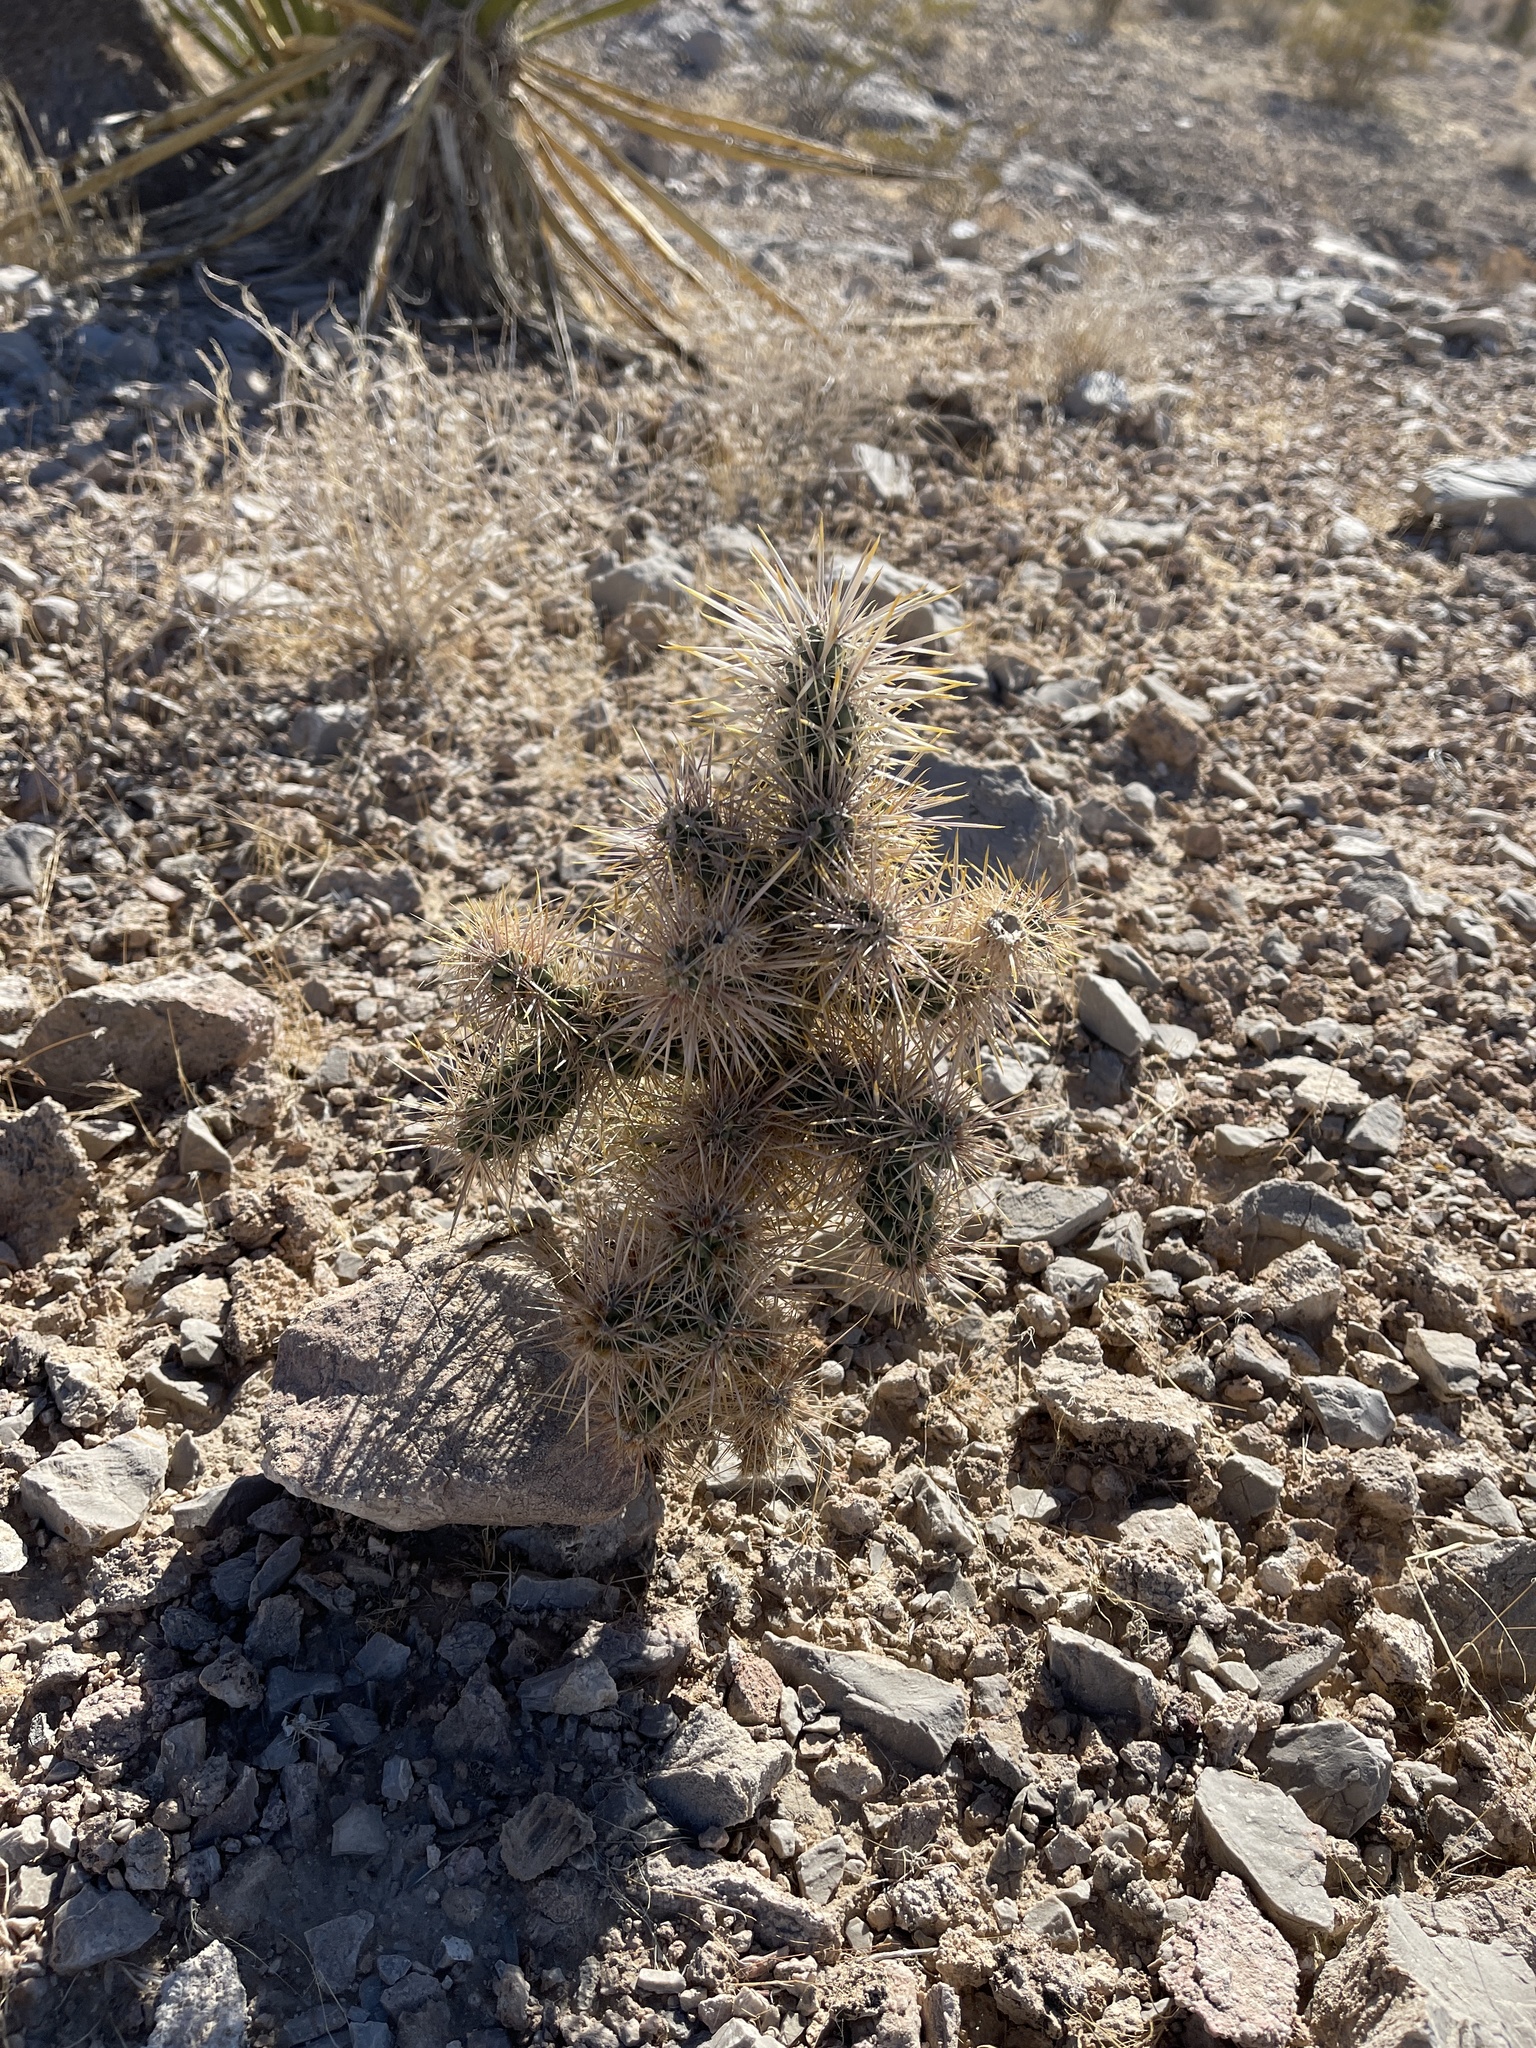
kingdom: Plantae
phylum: Tracheophyta
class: Magnoliopsida
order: Caryophyllales
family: Cactaceae
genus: Cylindropuntia
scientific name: Cylindropuntia echinocarpa
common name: Ground cholla
